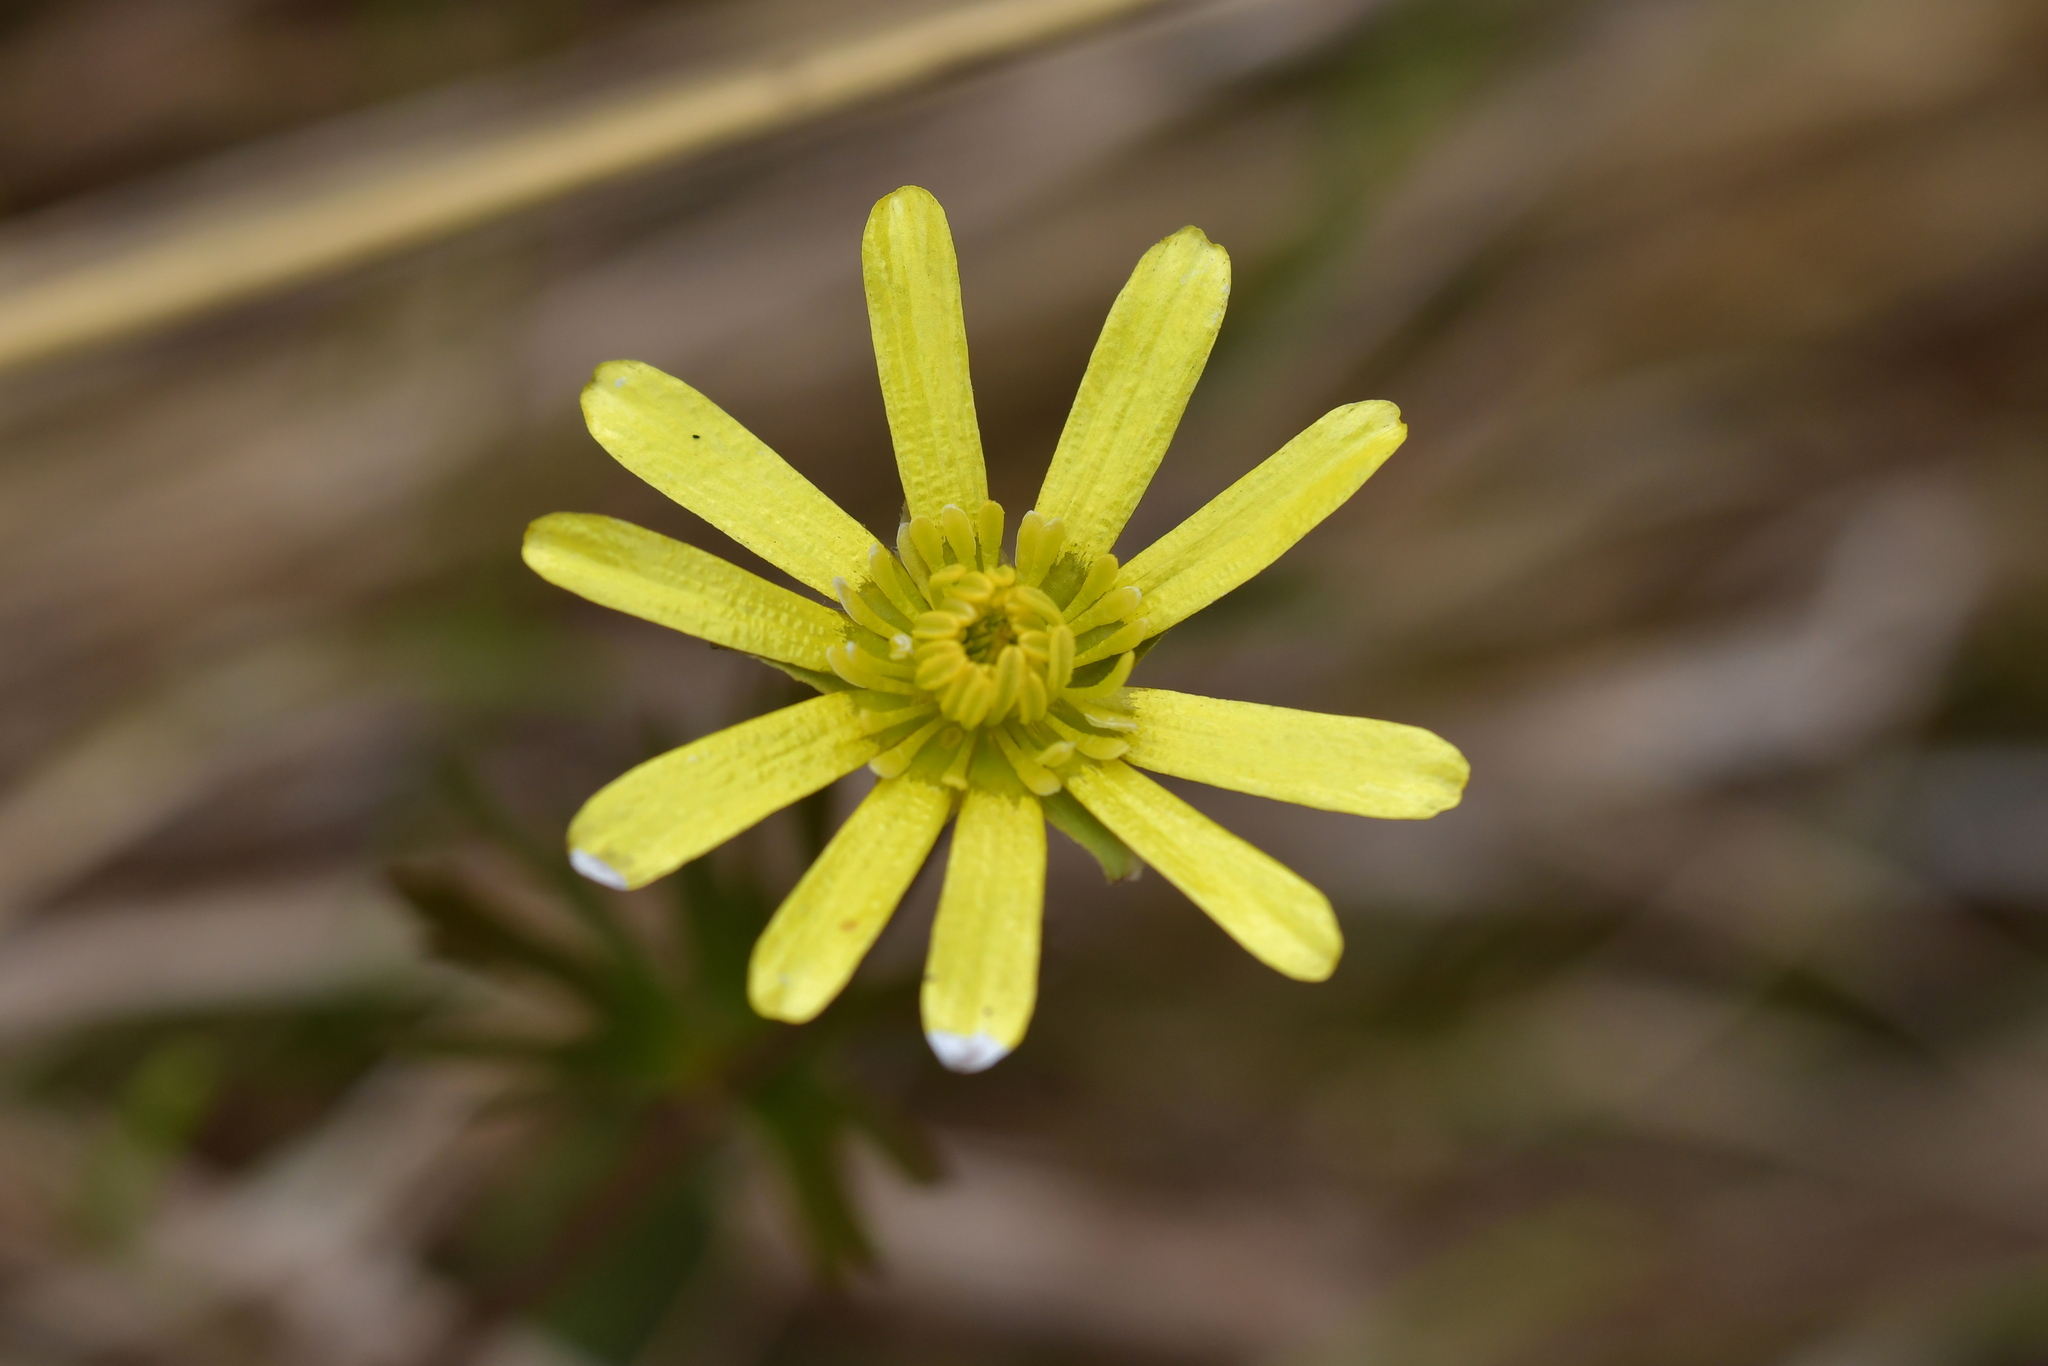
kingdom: Plantae
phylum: Tracheophyta
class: Magnoliopsida
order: Ranunculales
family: Ranunculaceae
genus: Ranunculus
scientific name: Ranunculus verticillatus
